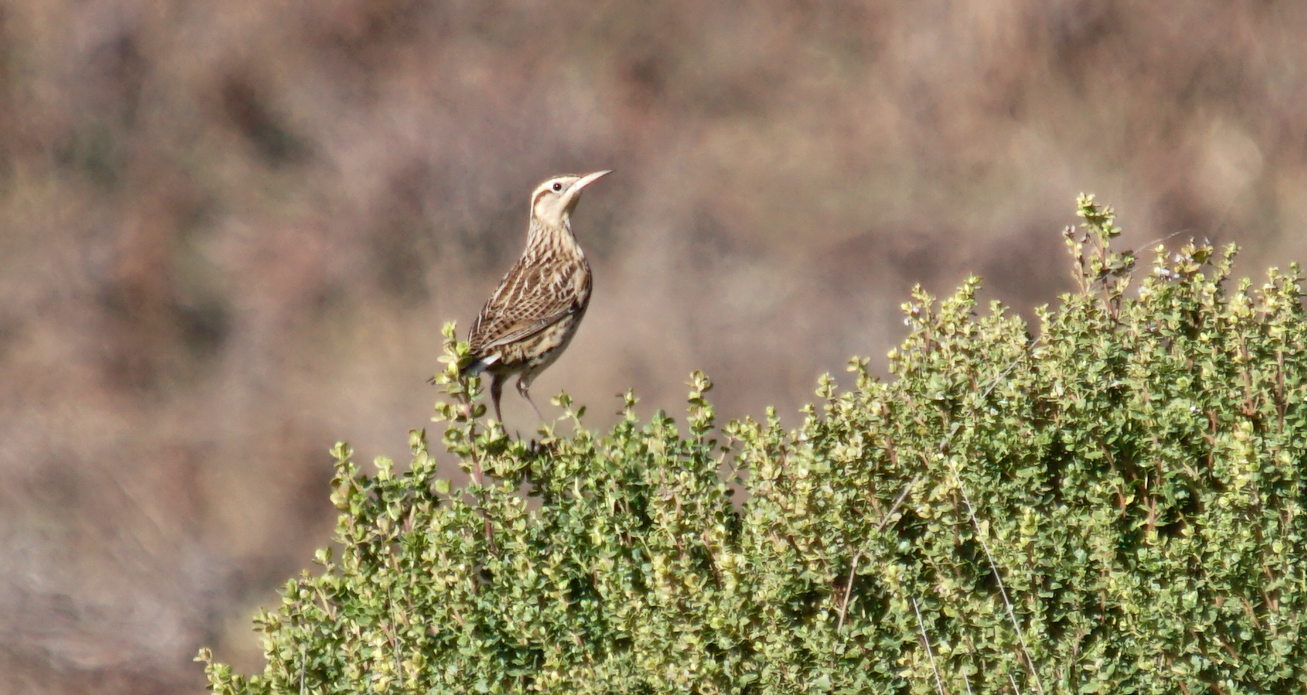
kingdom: Animalia
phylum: Chordata
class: Aves
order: Passeriformes
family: Icteridae
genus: Sturnella
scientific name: Sturnella neglecta
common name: Western meadowlark
